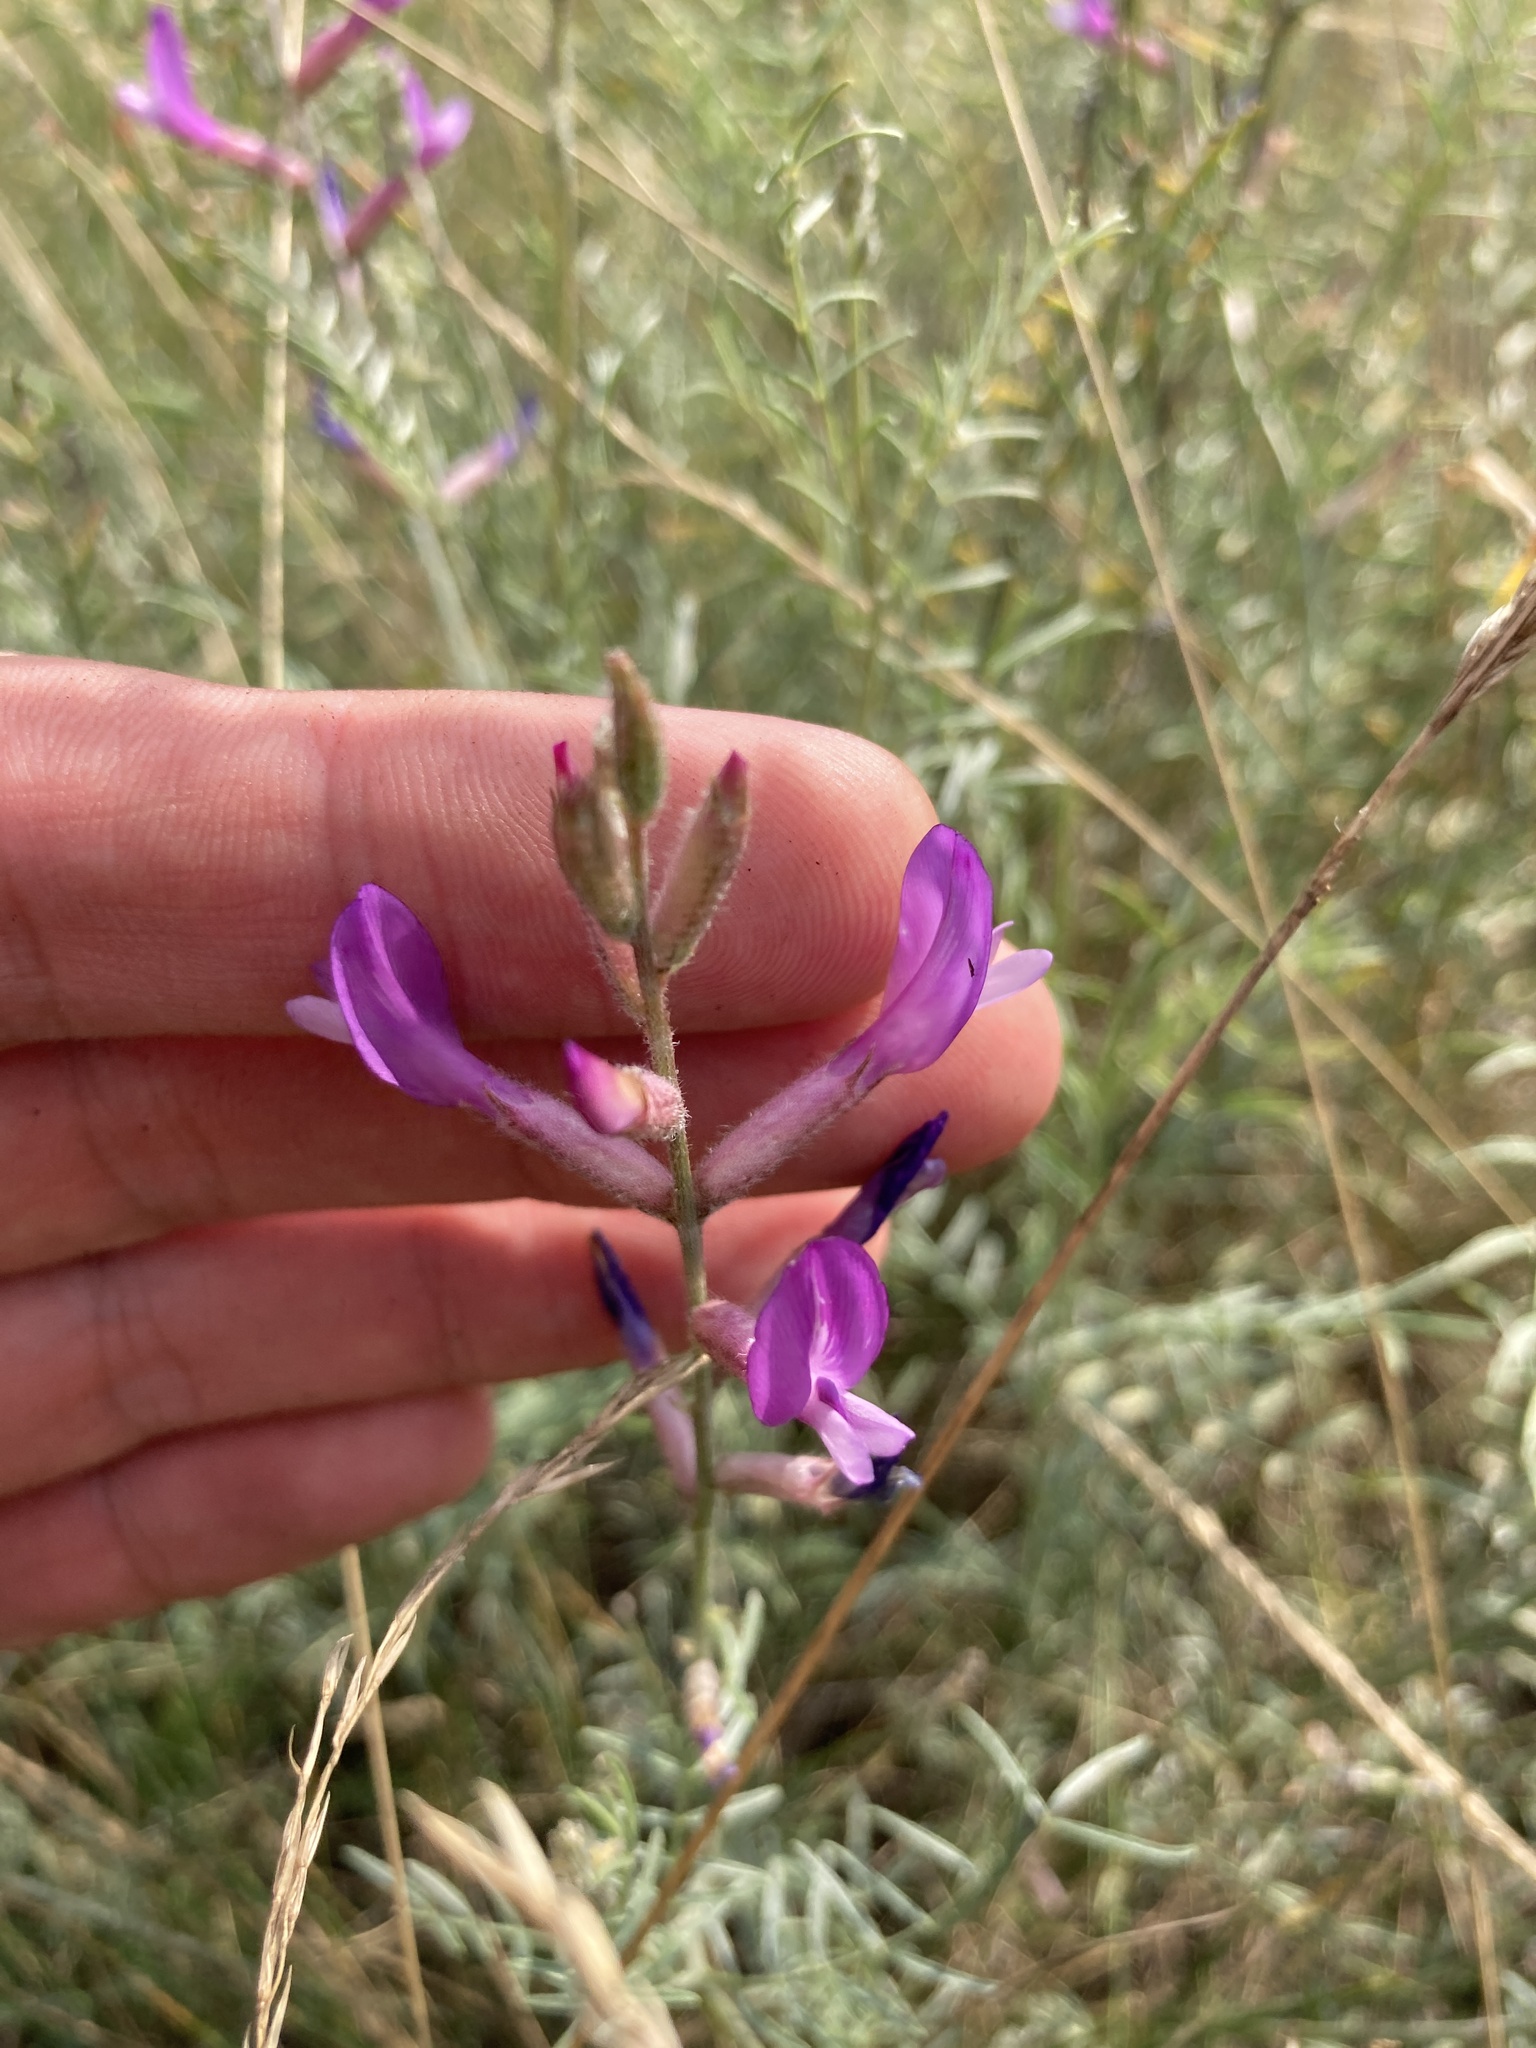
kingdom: Plantae
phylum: Tracheophyta
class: Magnoliopsida
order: Fabales
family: Fabaceae
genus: Astragalus
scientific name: Astragalus varius
